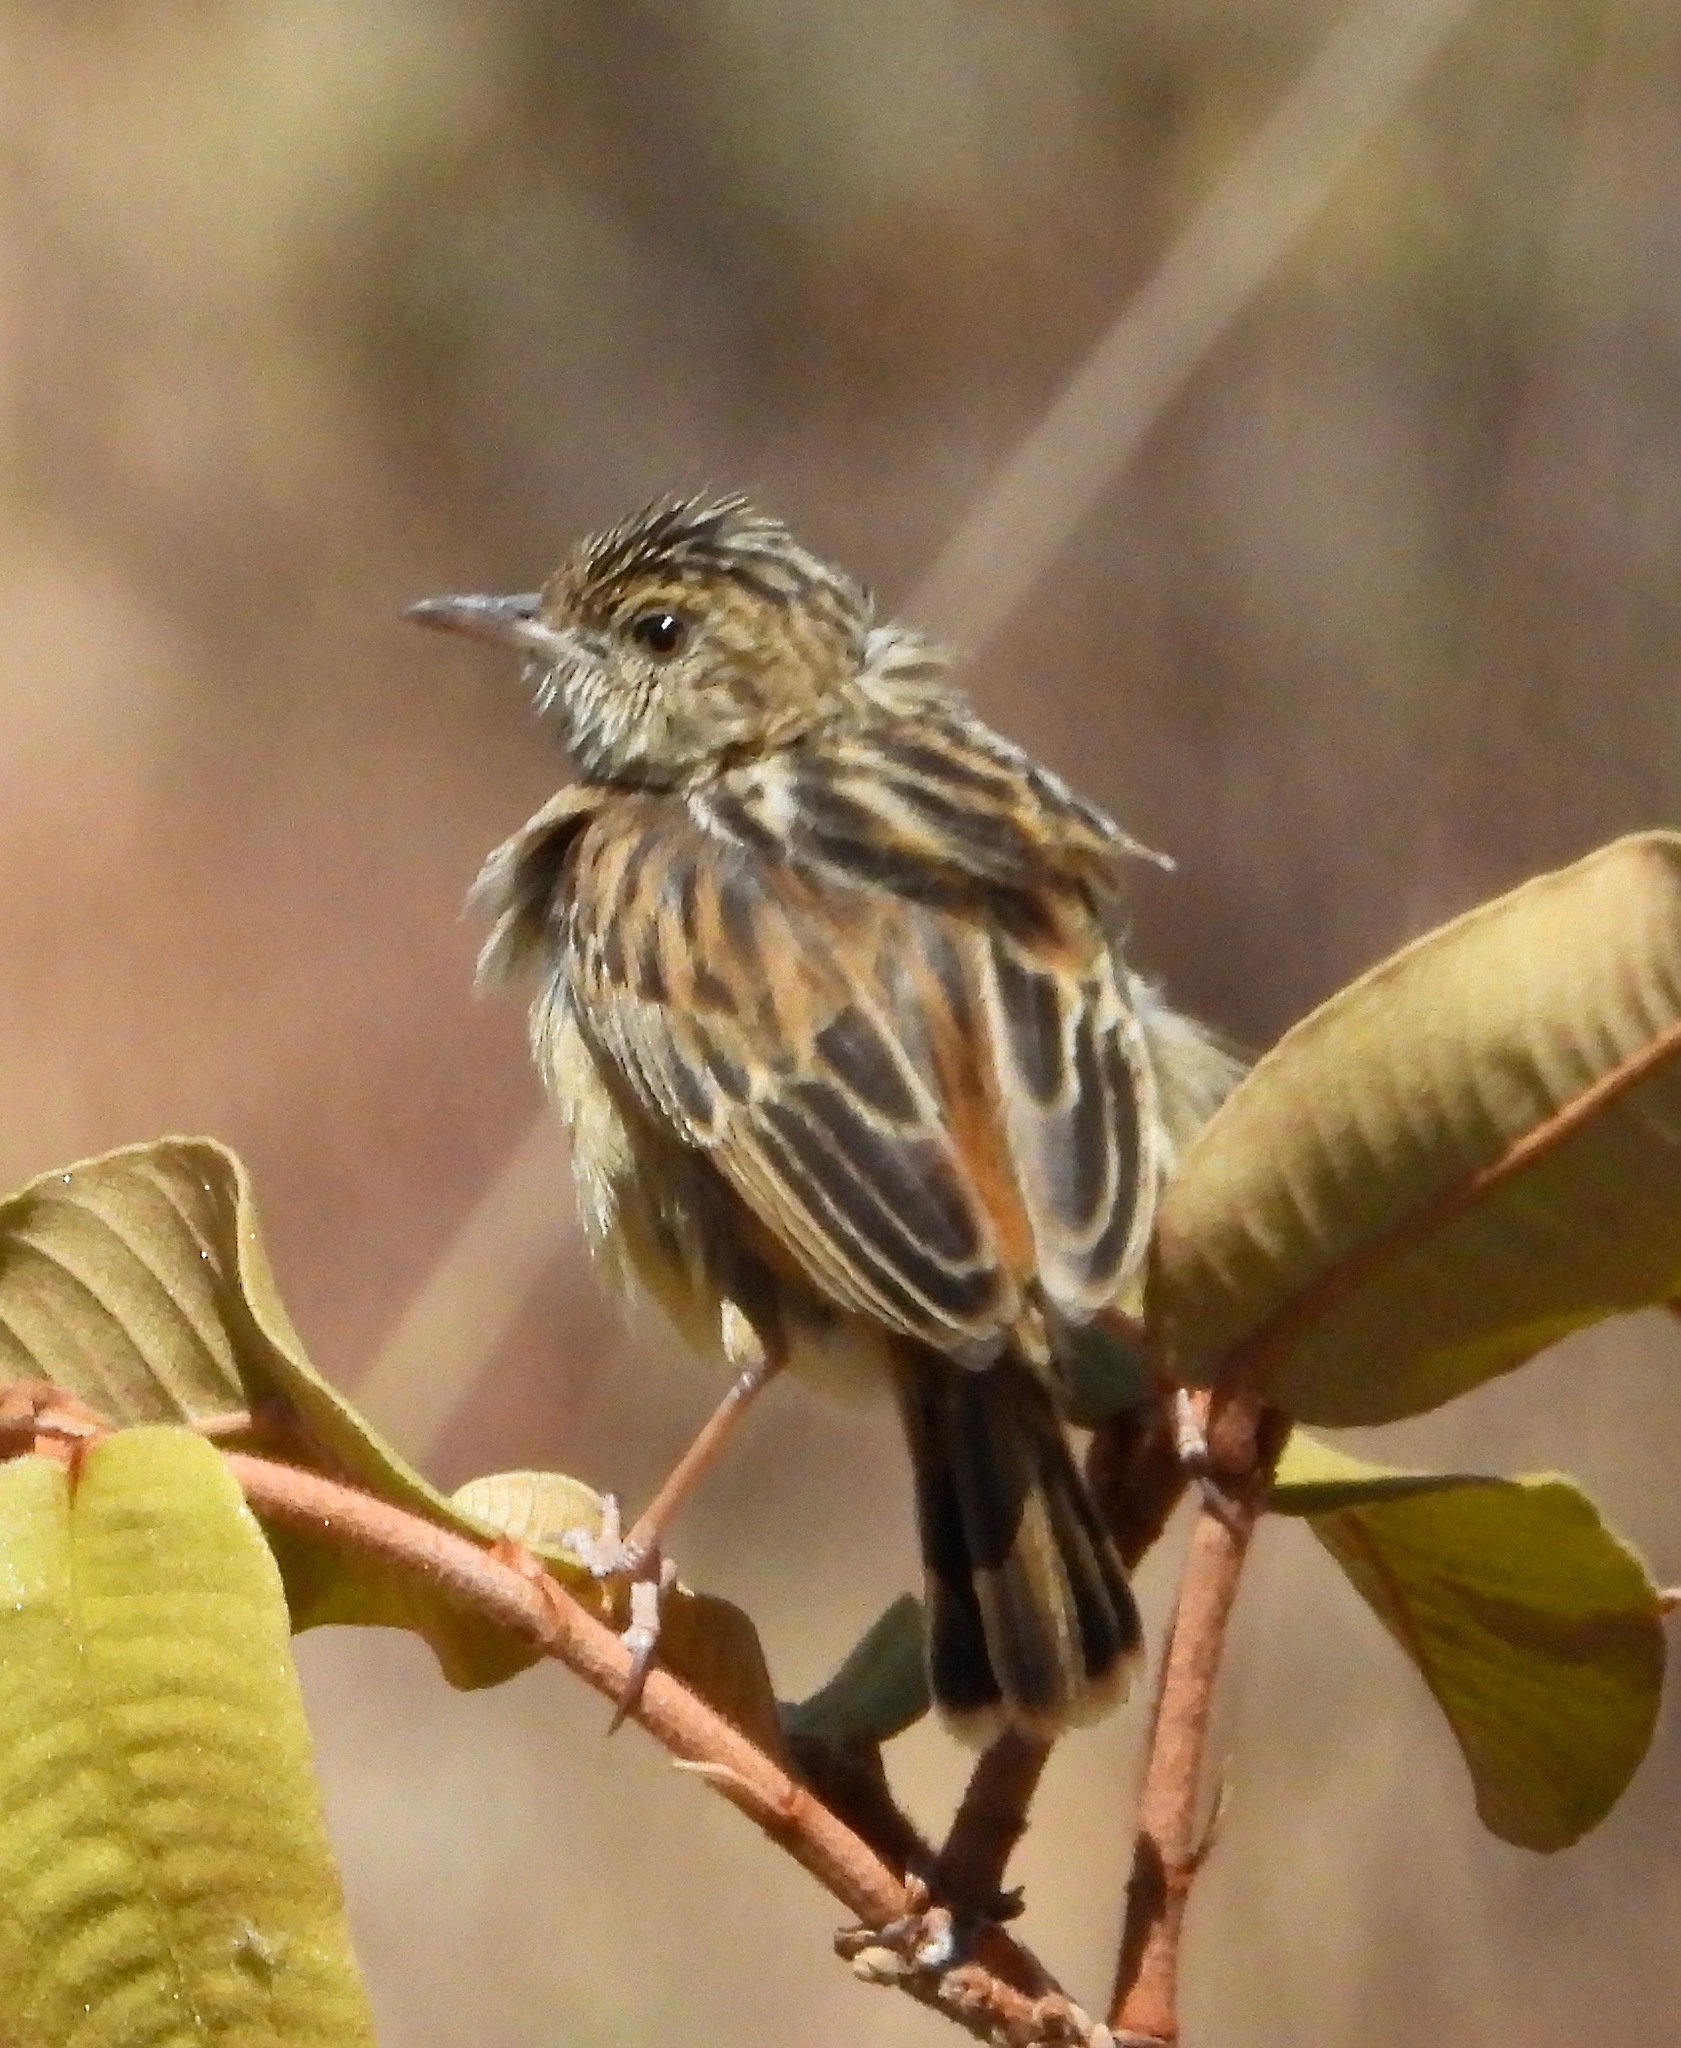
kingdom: Animalia
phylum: Chordata
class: Aves
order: Passeriformes
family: Cisticolidae
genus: Cisticola
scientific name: Cisticola ayresii
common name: Wing-snapping cisticola
